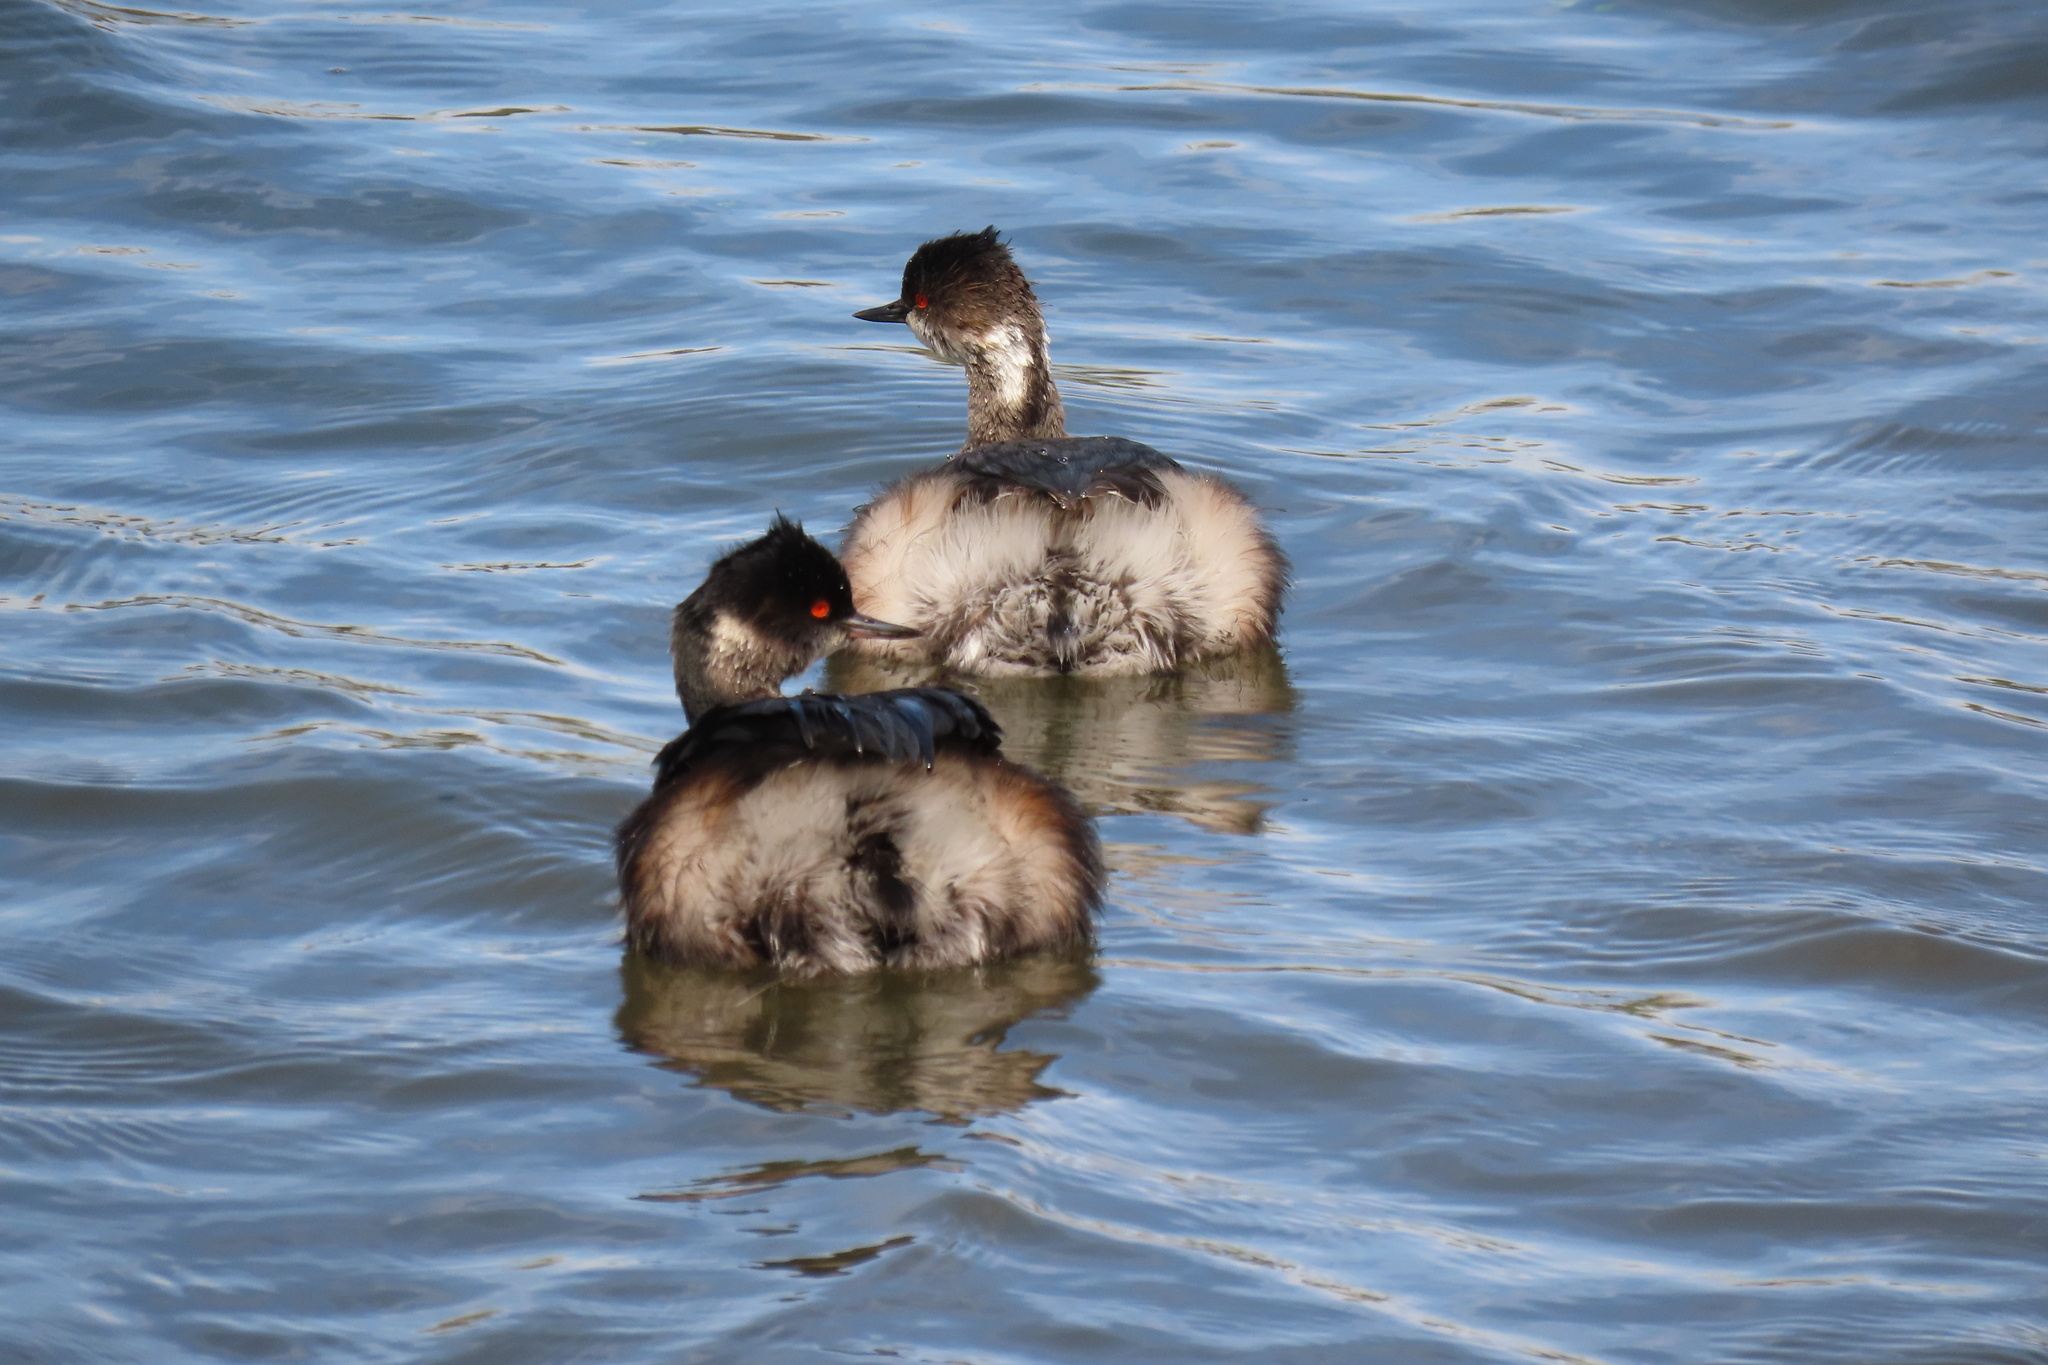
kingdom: Animalia
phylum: Chordata
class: Aves
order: Podicipediformes
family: Podicipedidae
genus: Podiceps
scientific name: Podiceps nigricollis
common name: Black-necked grebe
